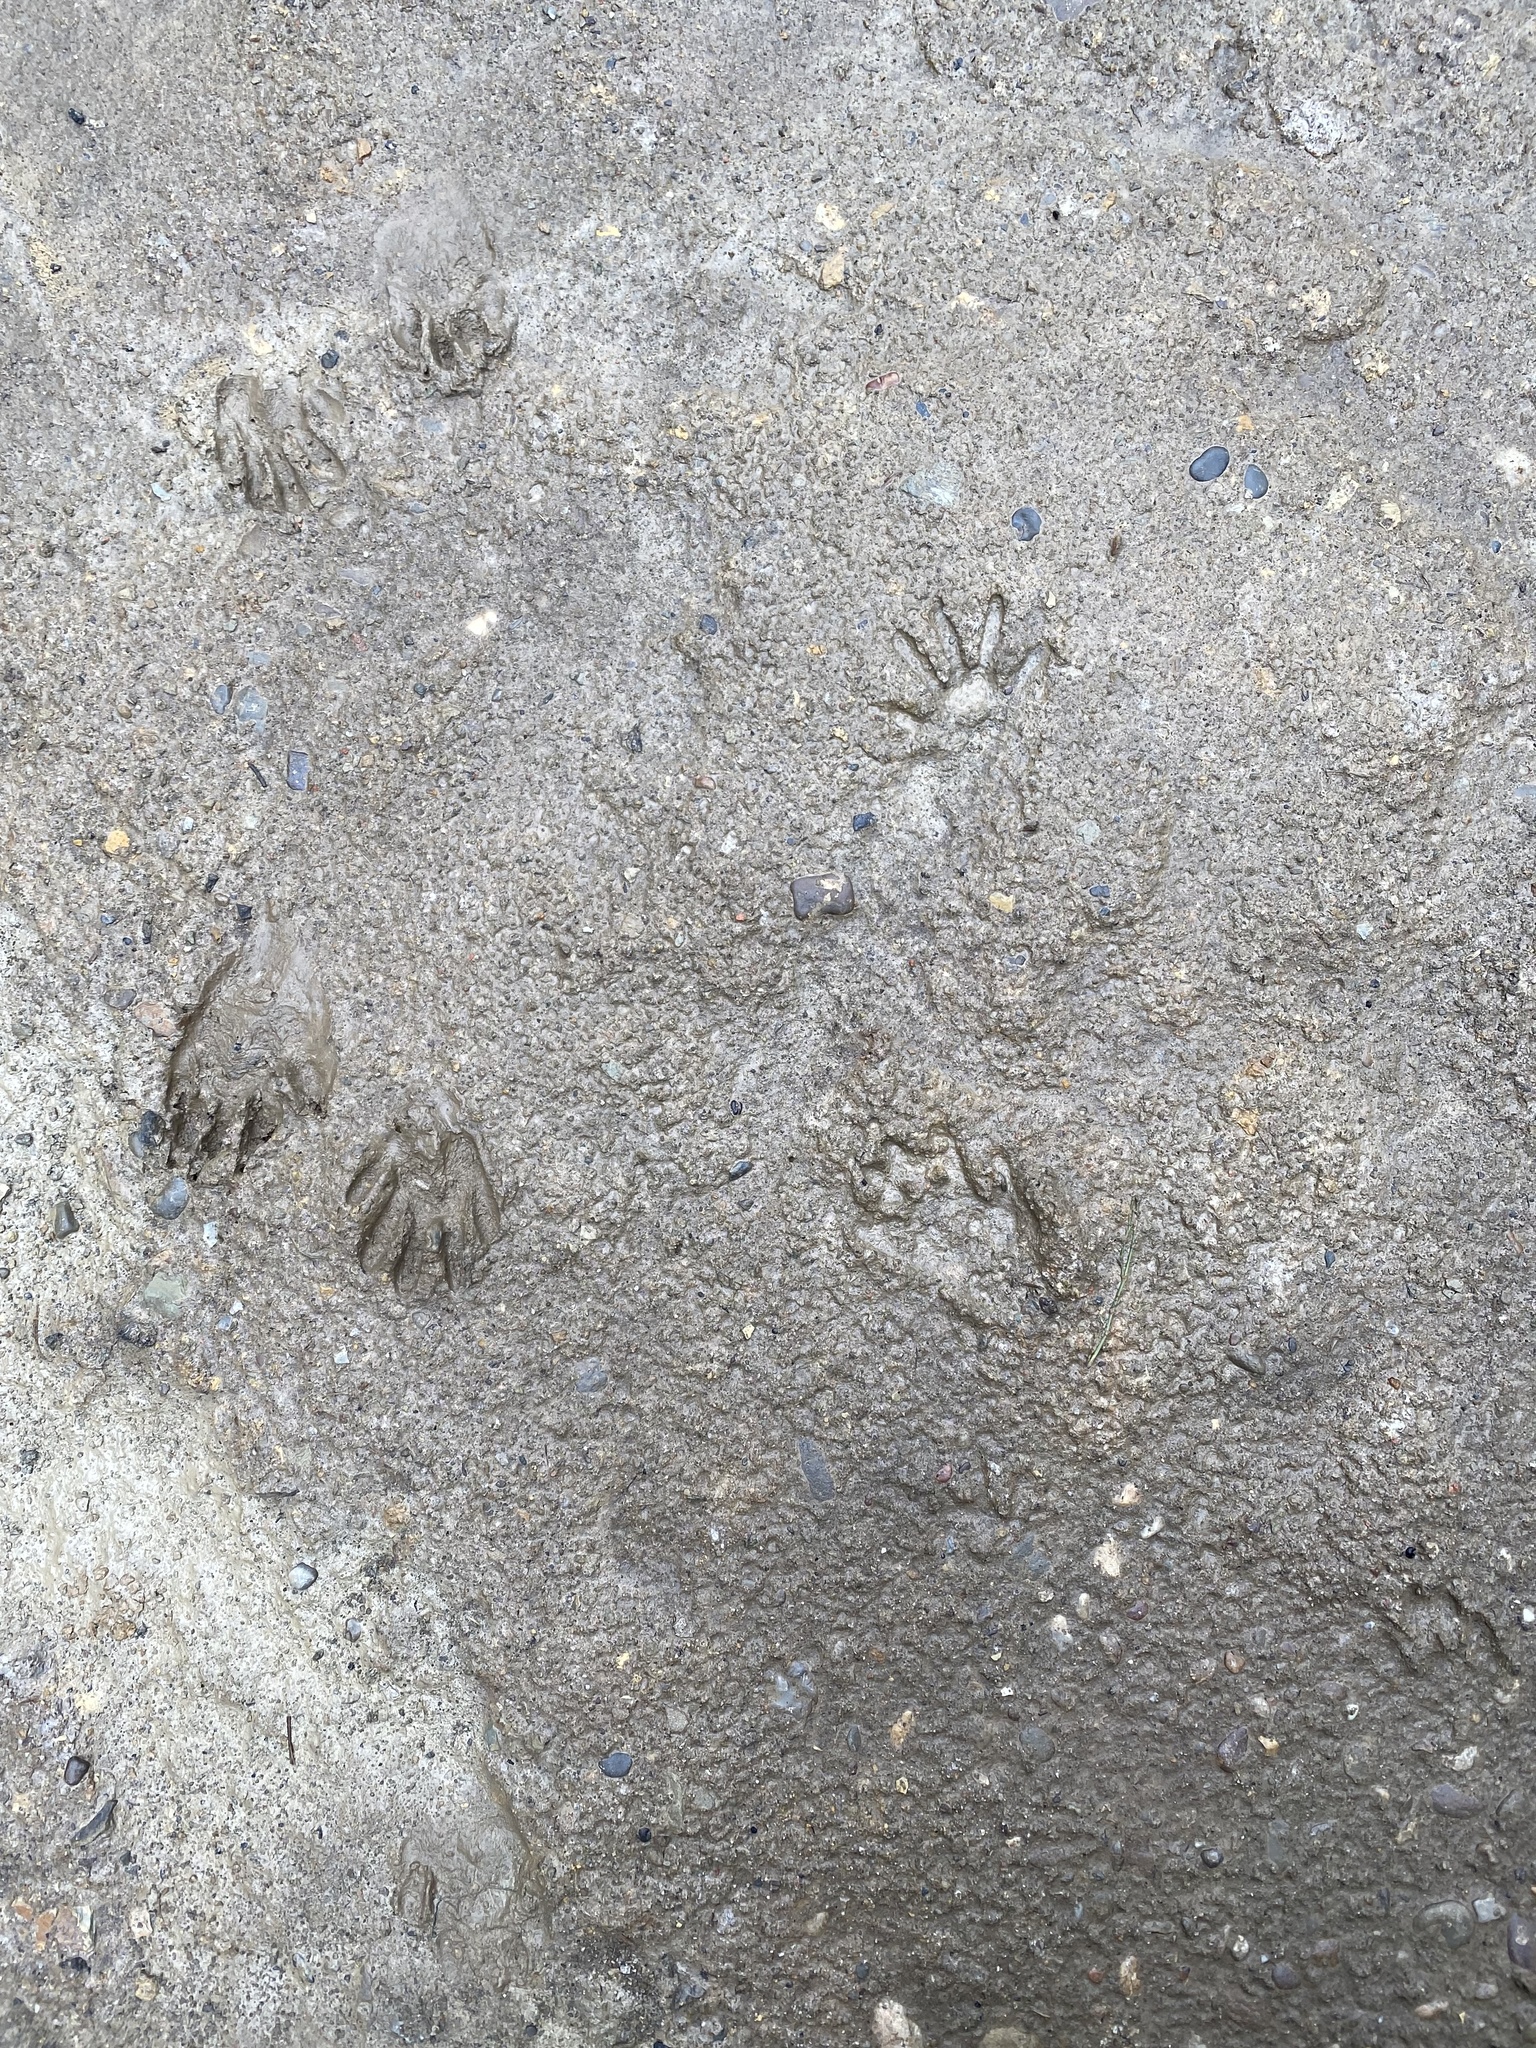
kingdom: Animalia
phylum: Chordata
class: Mammalia
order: Carnivora
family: Procyonidae
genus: Procyon
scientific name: Procyon lotor
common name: Raccoon
